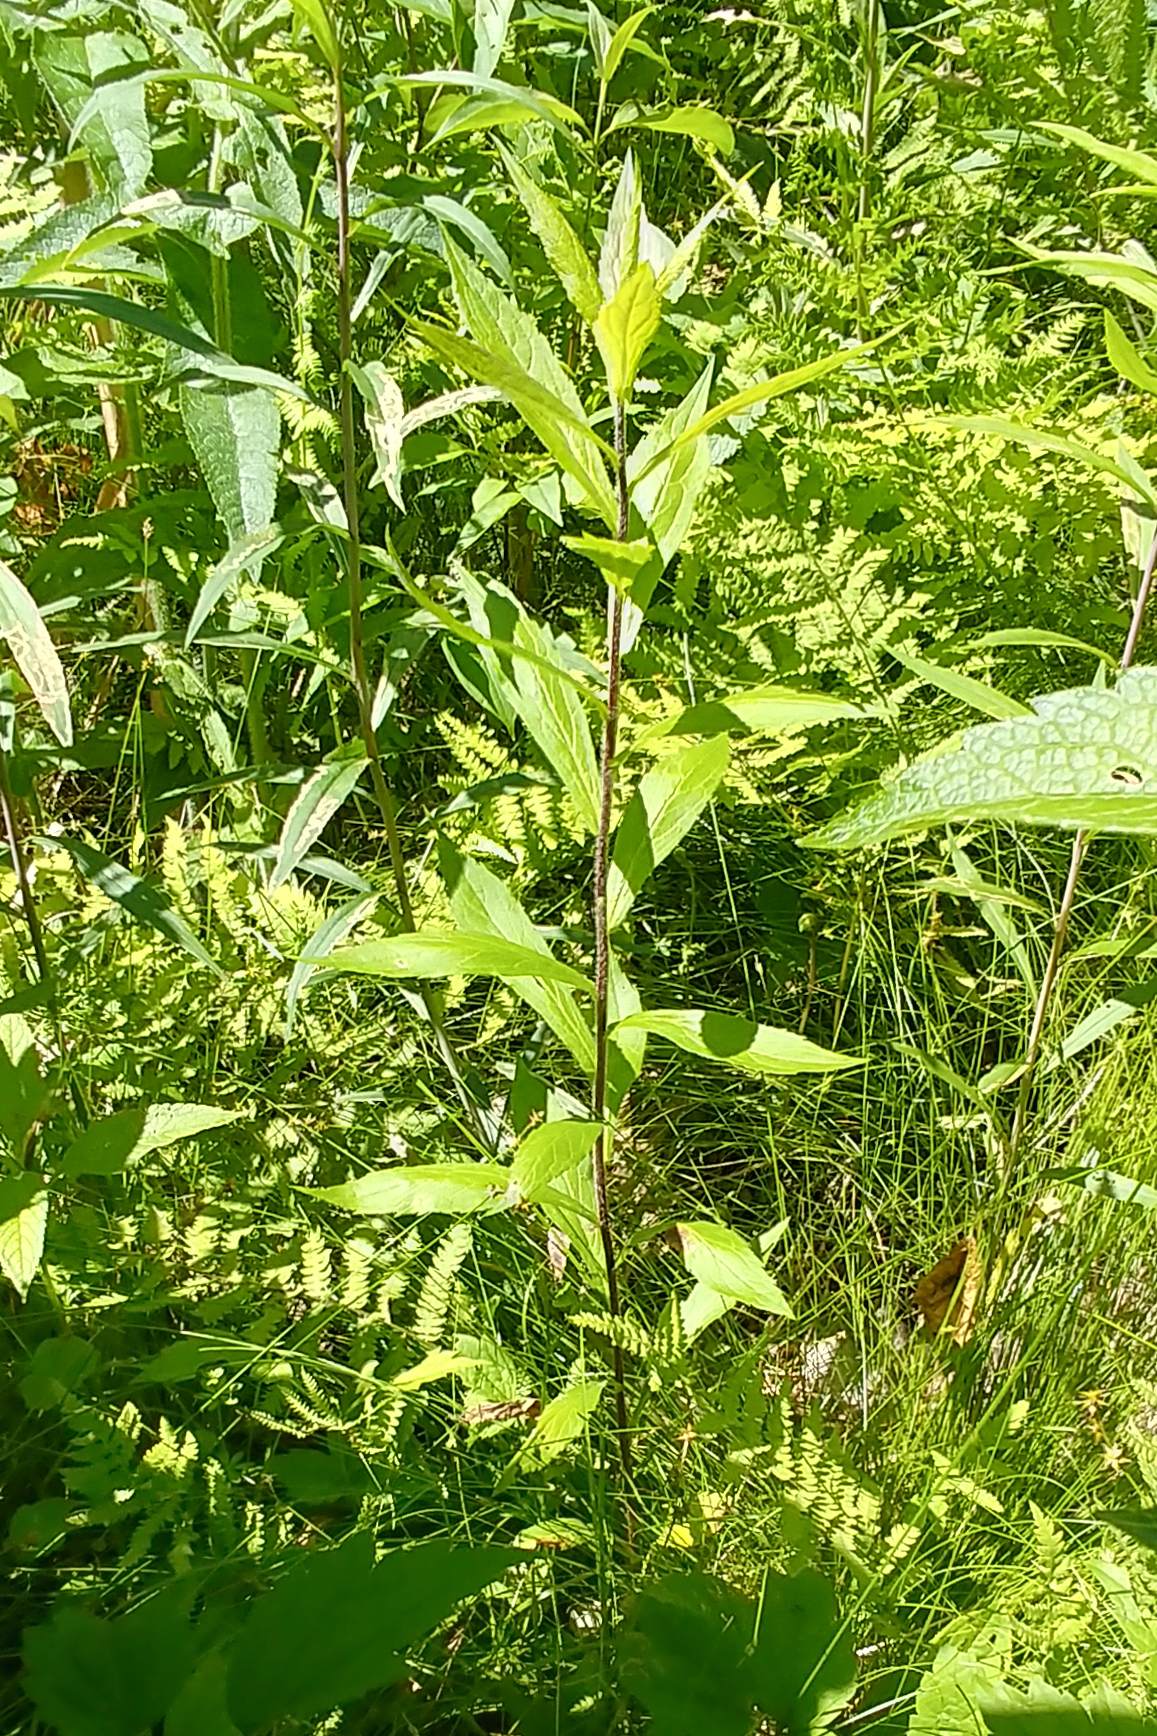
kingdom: Plantae
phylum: Tracheophyta
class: Magnoliopsida
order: Asterales
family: Asteraceae
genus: Solidago
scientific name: Solidago rugosa
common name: Rough-stemmed goldenrod
